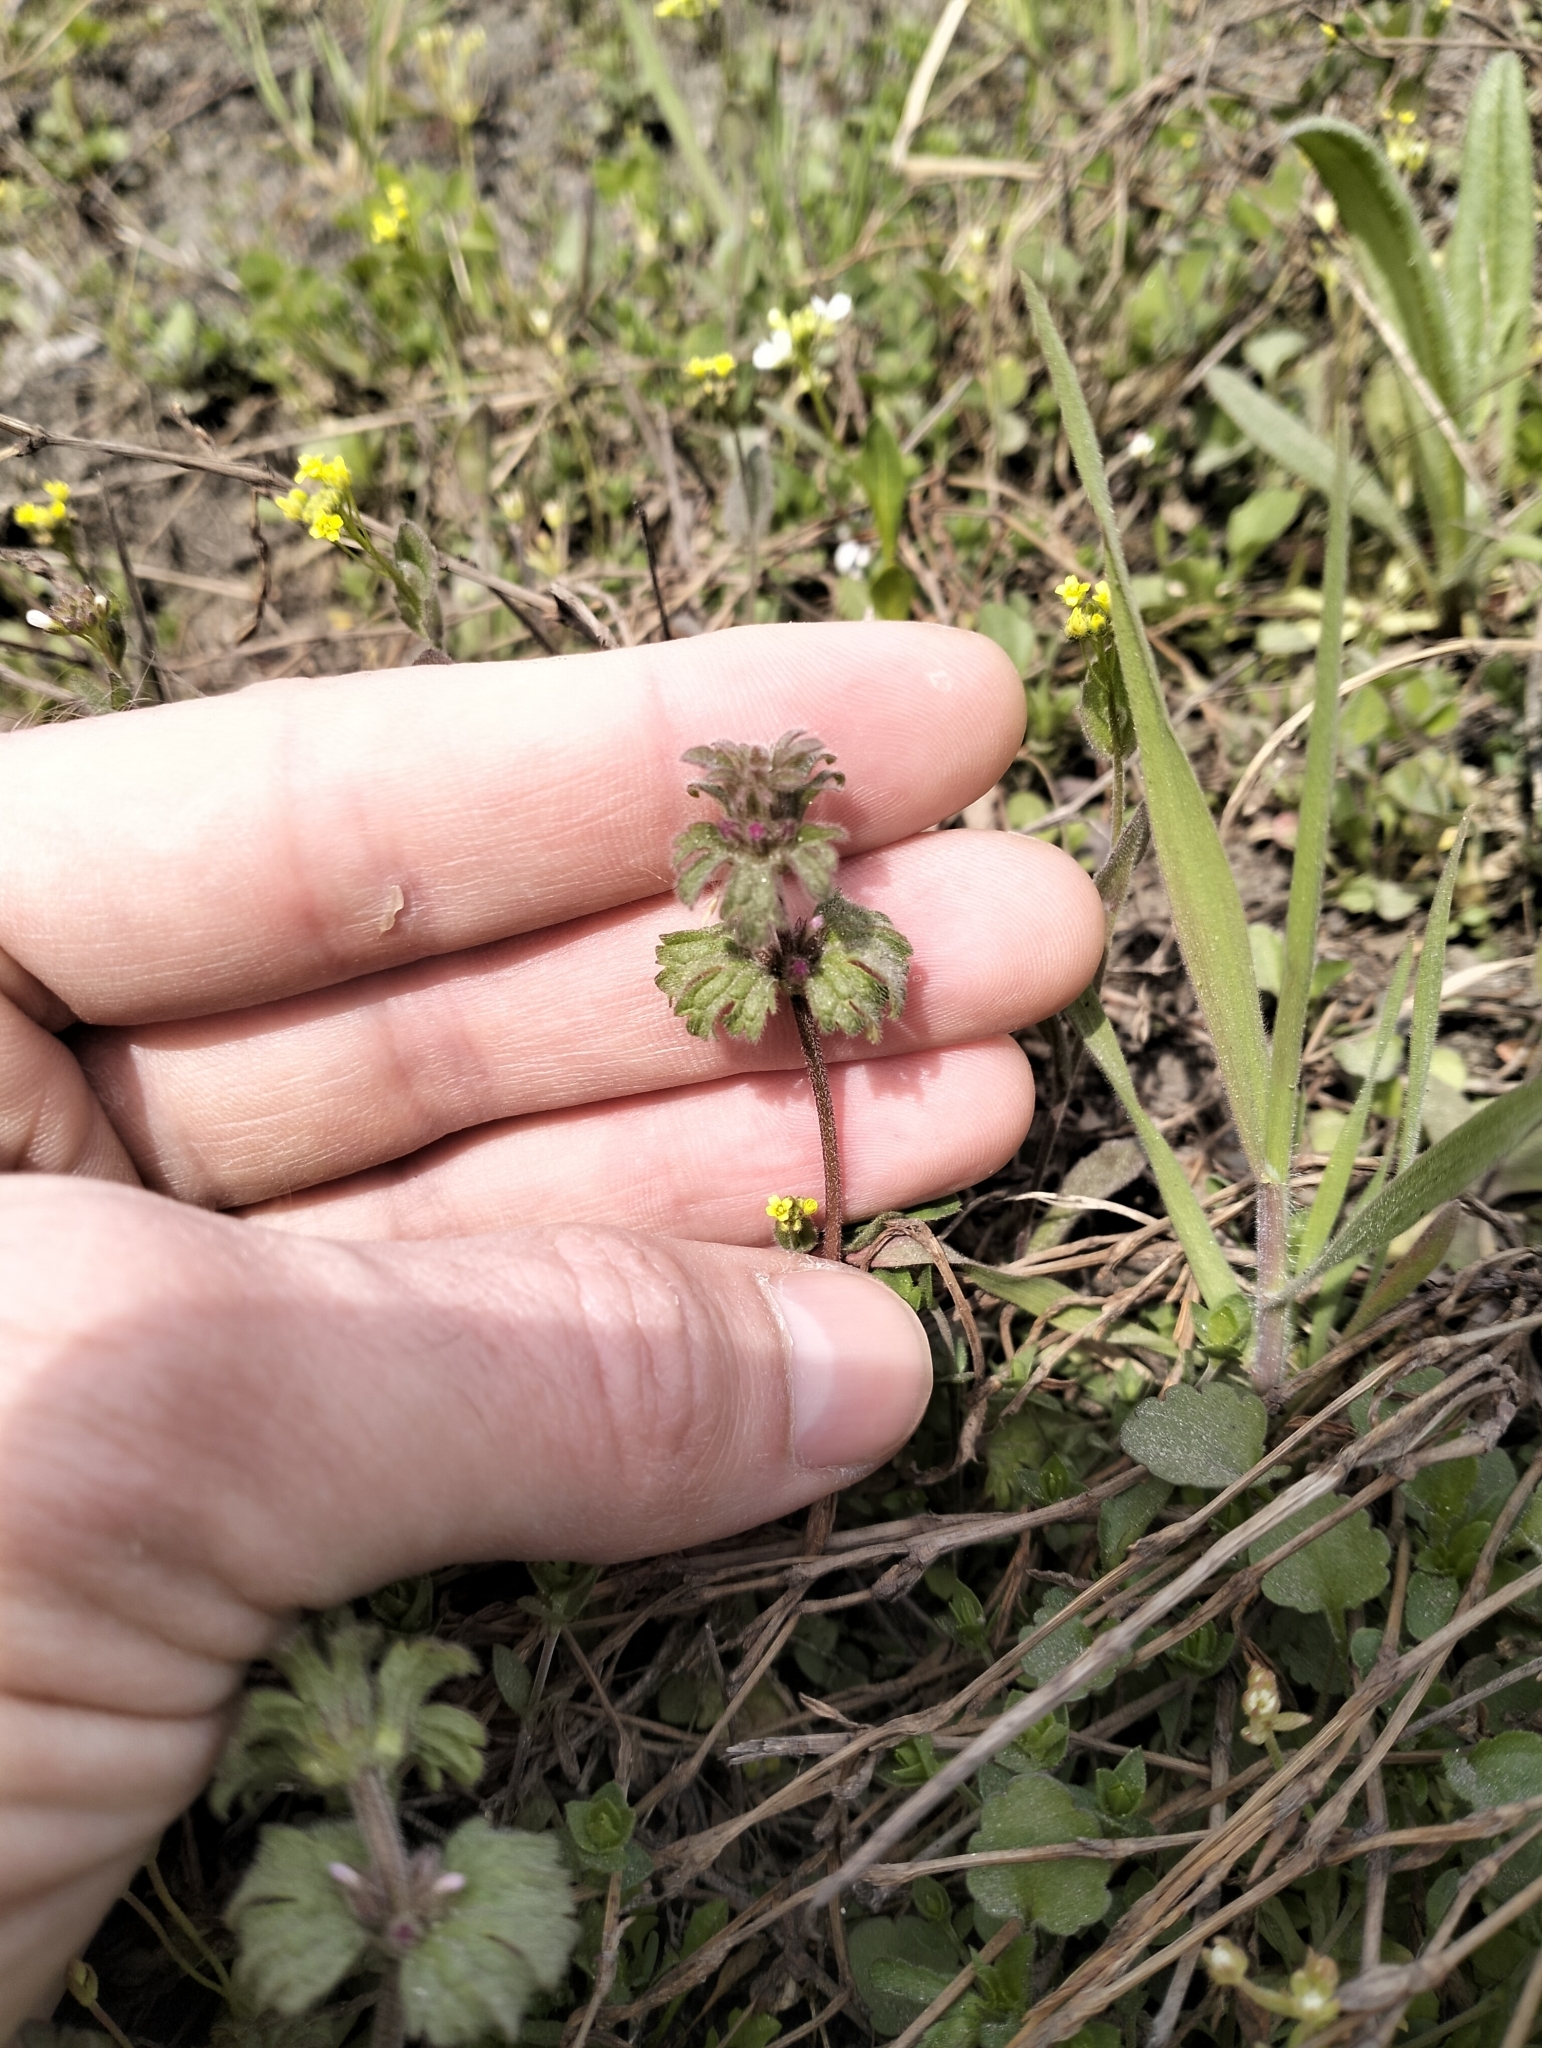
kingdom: Plantae
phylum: Tracheophyta
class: Magnoliopsida
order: Lamiales
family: Lamiaceae
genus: Lamium
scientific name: Lamium amplexicaule
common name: Henbit dead-nettle
